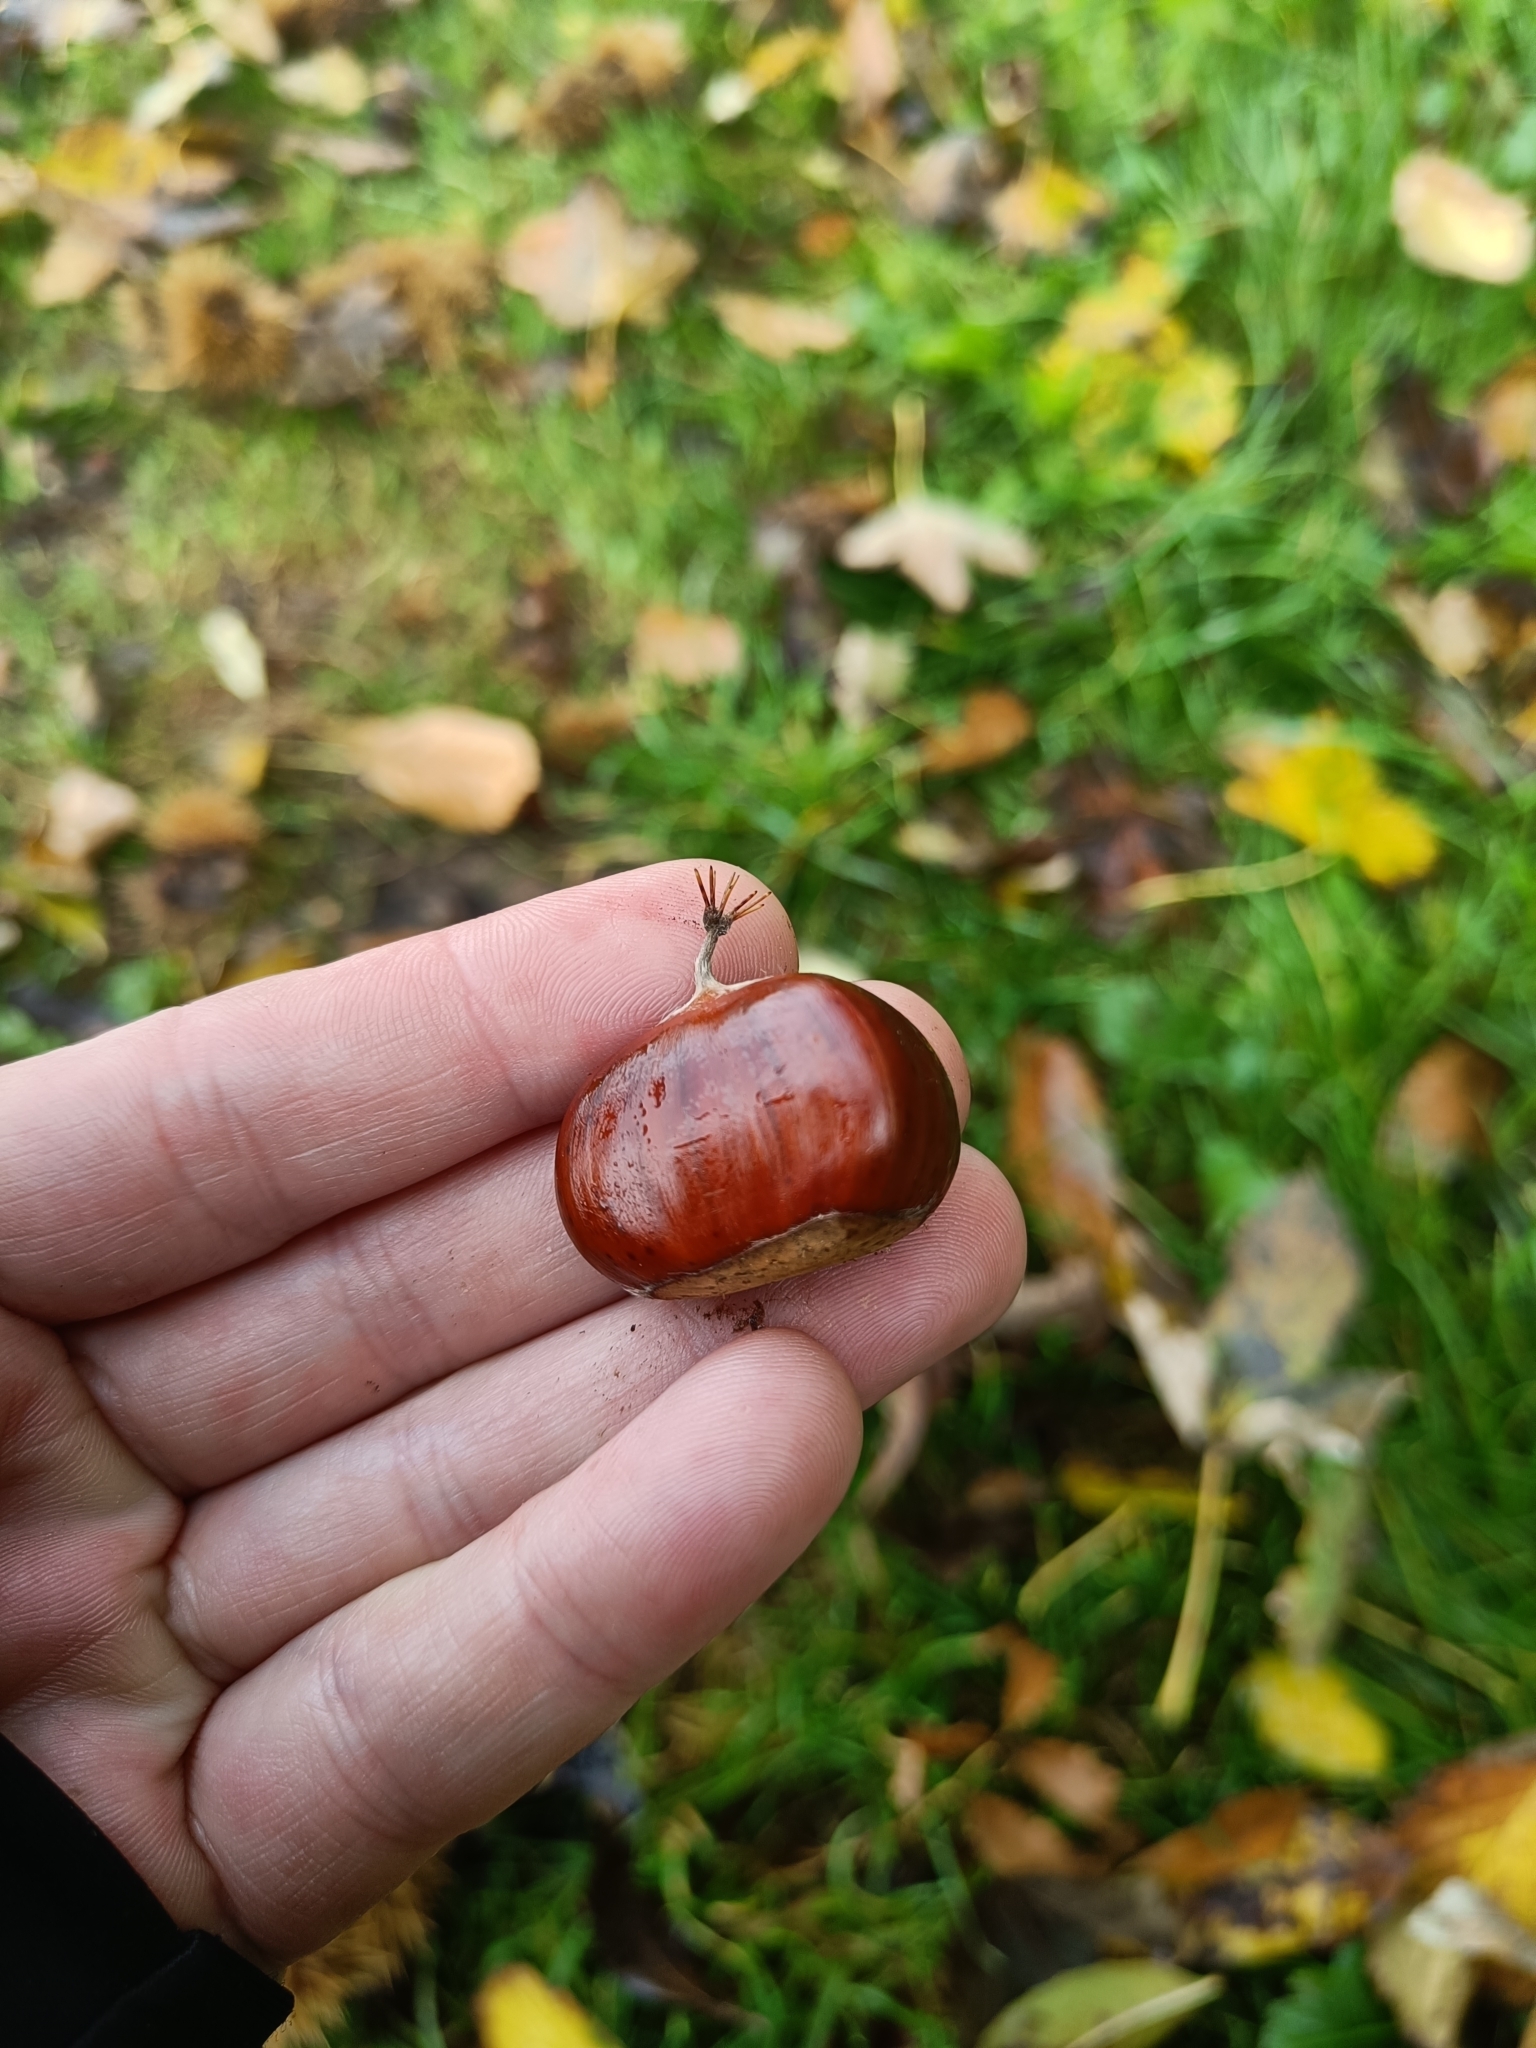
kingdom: Plantae
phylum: Tracheophyta
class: Magnoliopsida
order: Fagales
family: Fagaceae
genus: Castanea
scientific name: Castanea sativa
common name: Sweet chestnut
